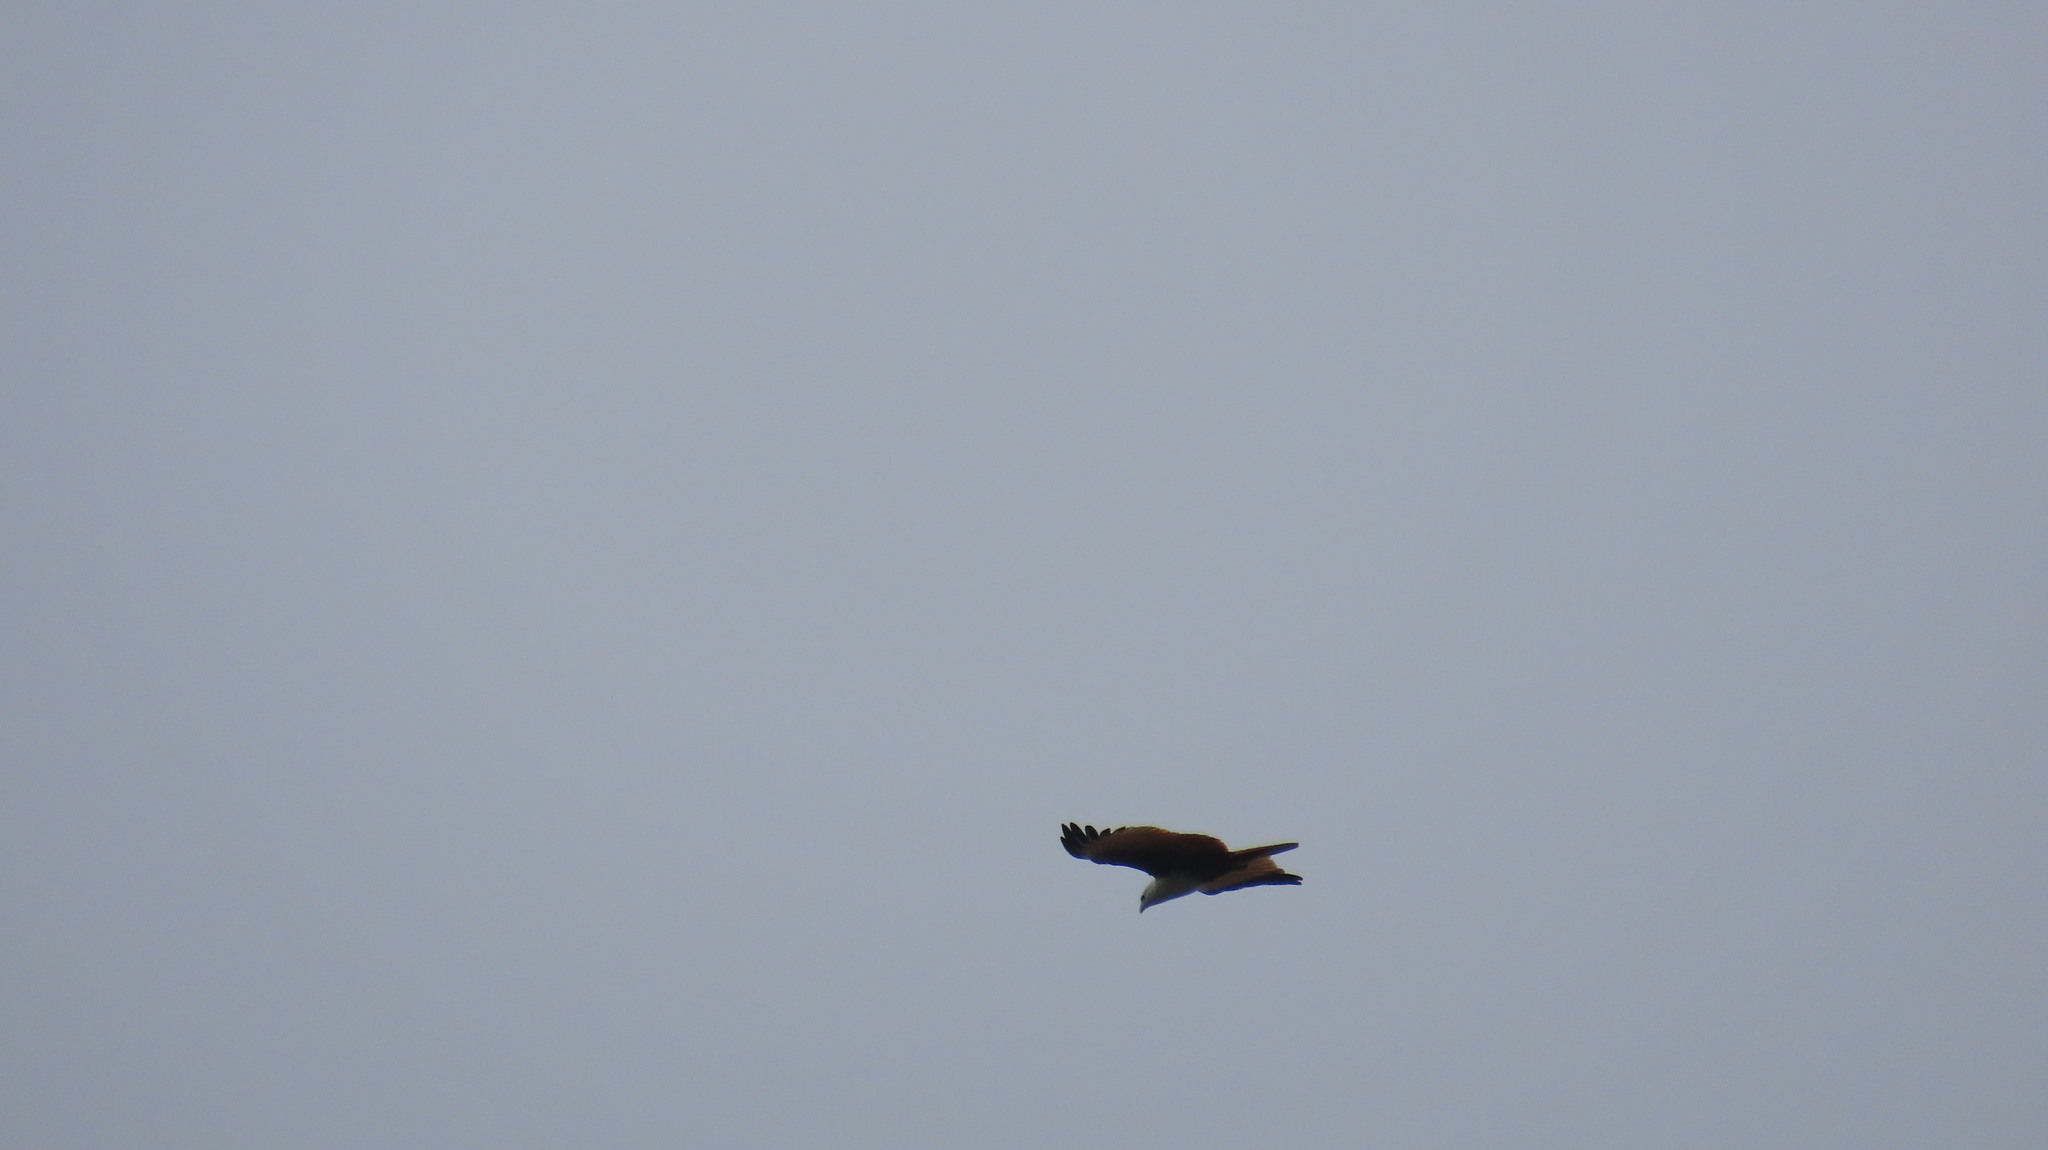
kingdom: Animalia
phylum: Chordata
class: Aves
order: Accipitriformes
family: Accipitridae
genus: Haliastur
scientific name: Haliastur indus
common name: Brahminy kite
